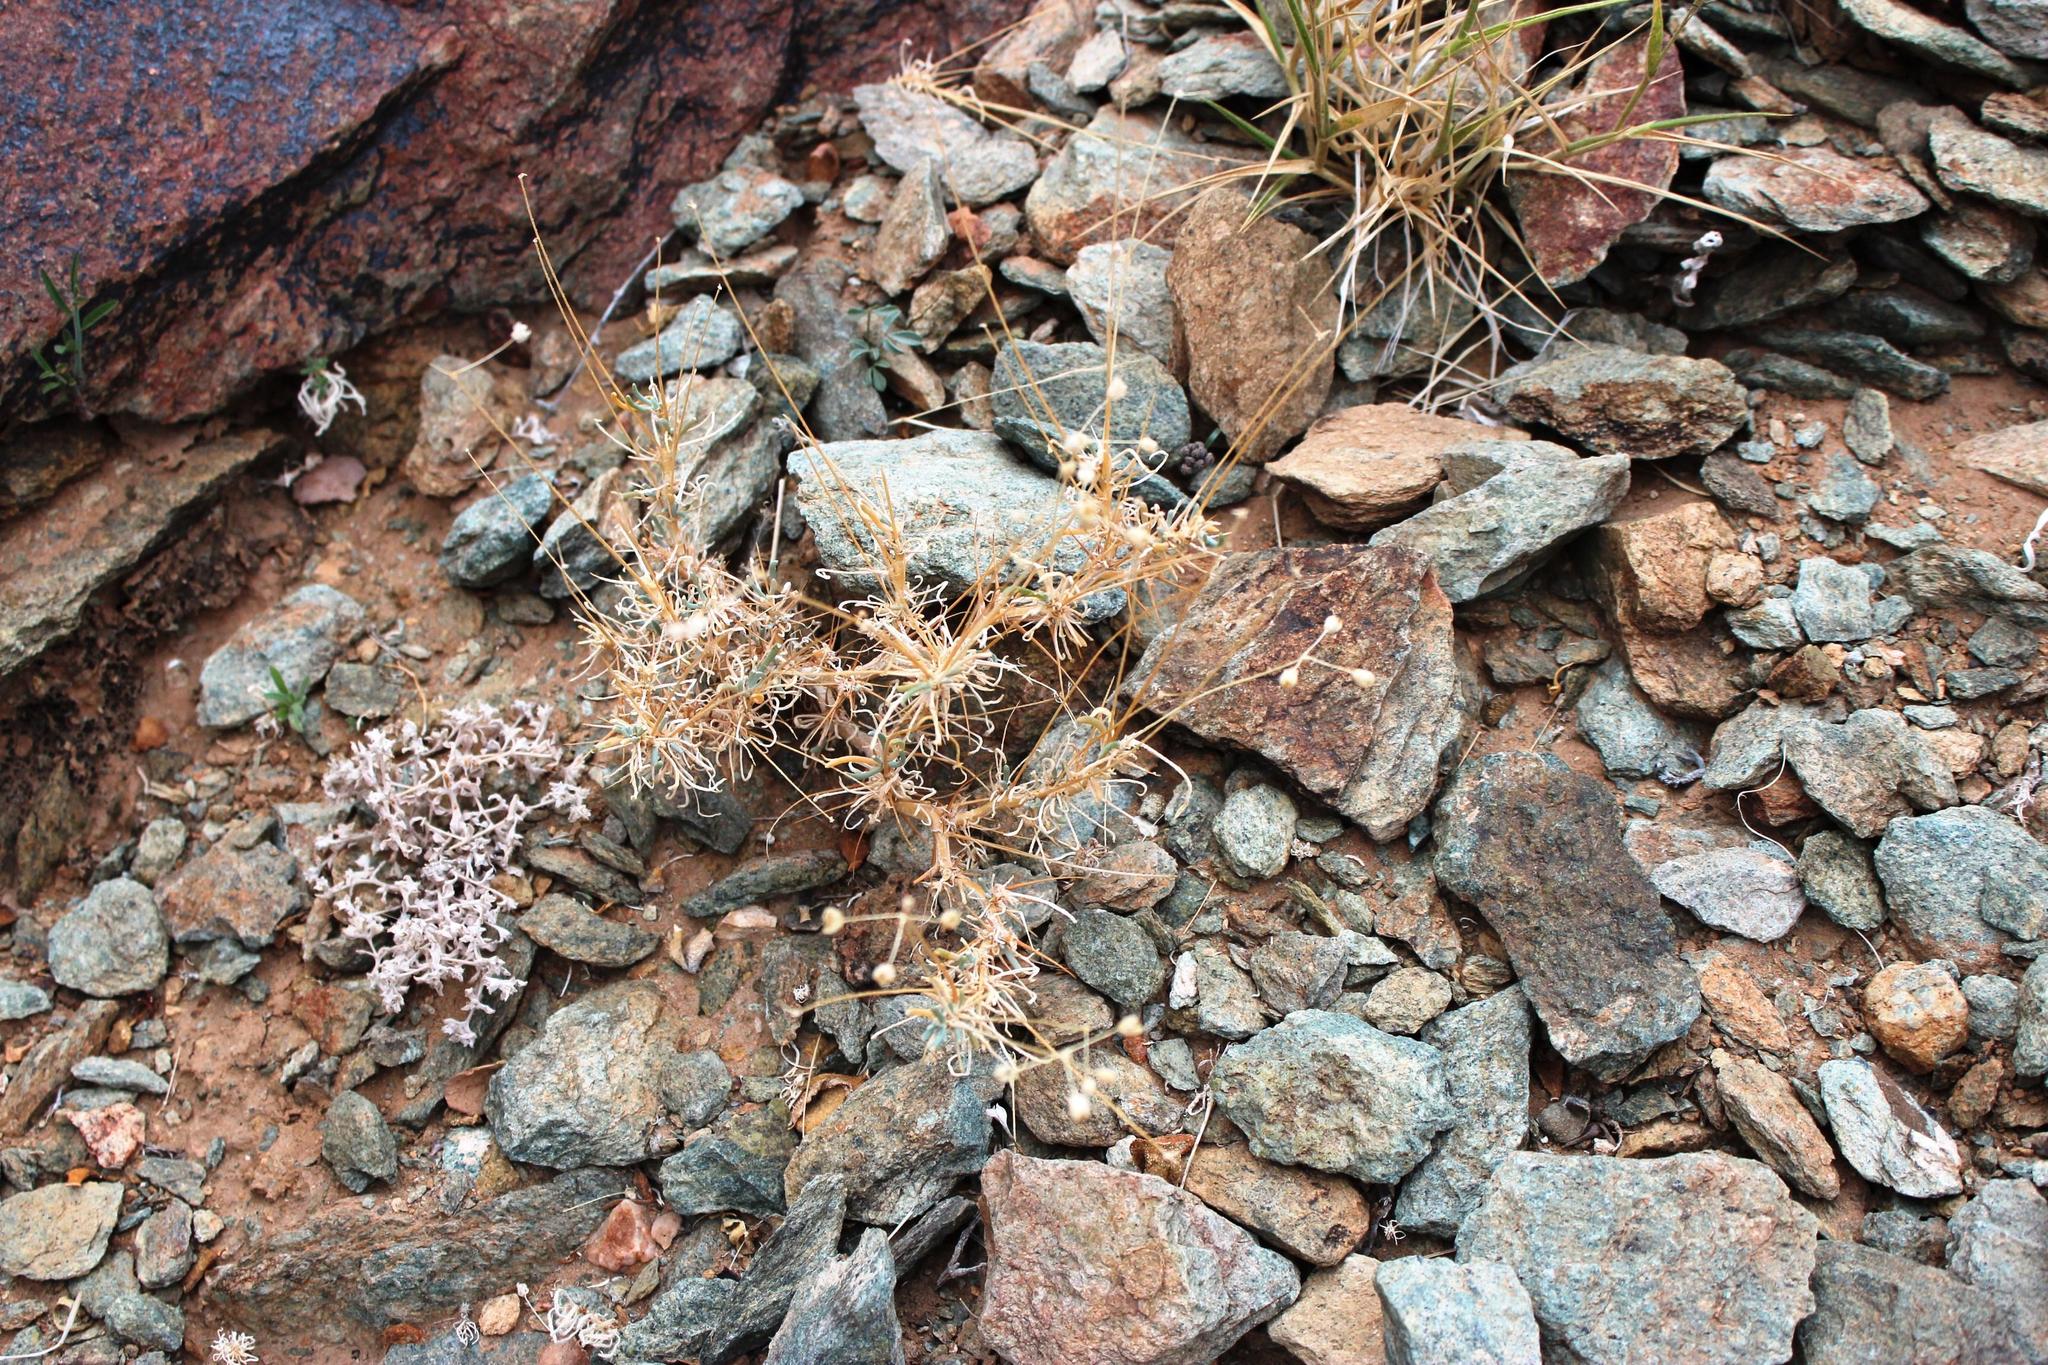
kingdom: Plantae
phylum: Tracheophyta
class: Magnoliopsida
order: Caryophyllales
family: Kewaceae
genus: Kewa
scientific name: Kewa salsoloides
